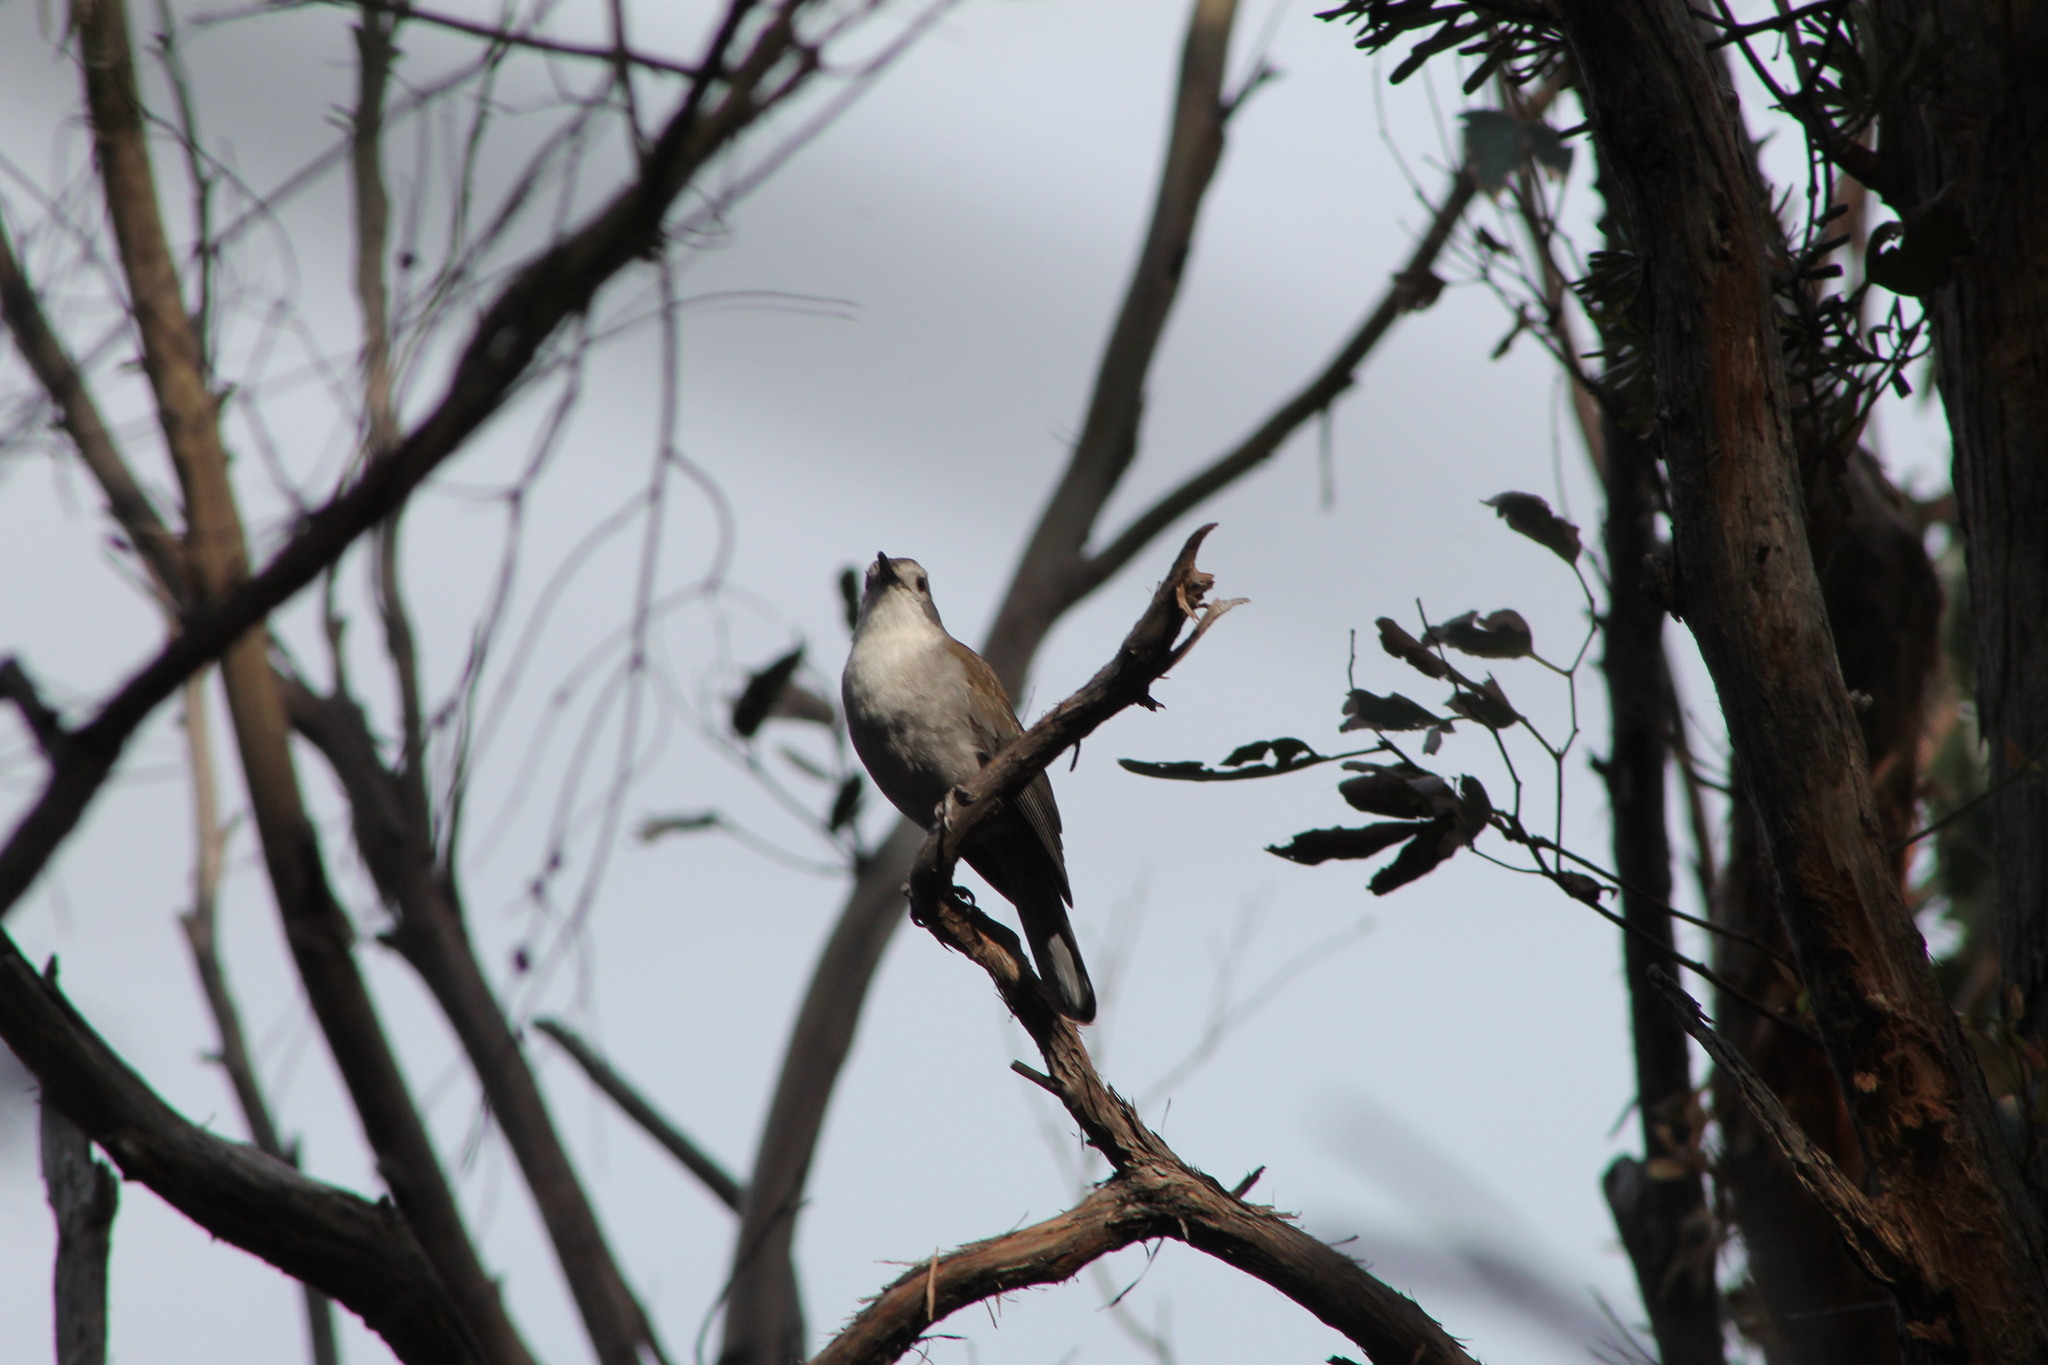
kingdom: Animalia
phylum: Chordata
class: Aves
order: Passeriformes
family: Pachycephalidae
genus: Colluricincla
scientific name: Colluricincla harmonica
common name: Grey shrikethrush
